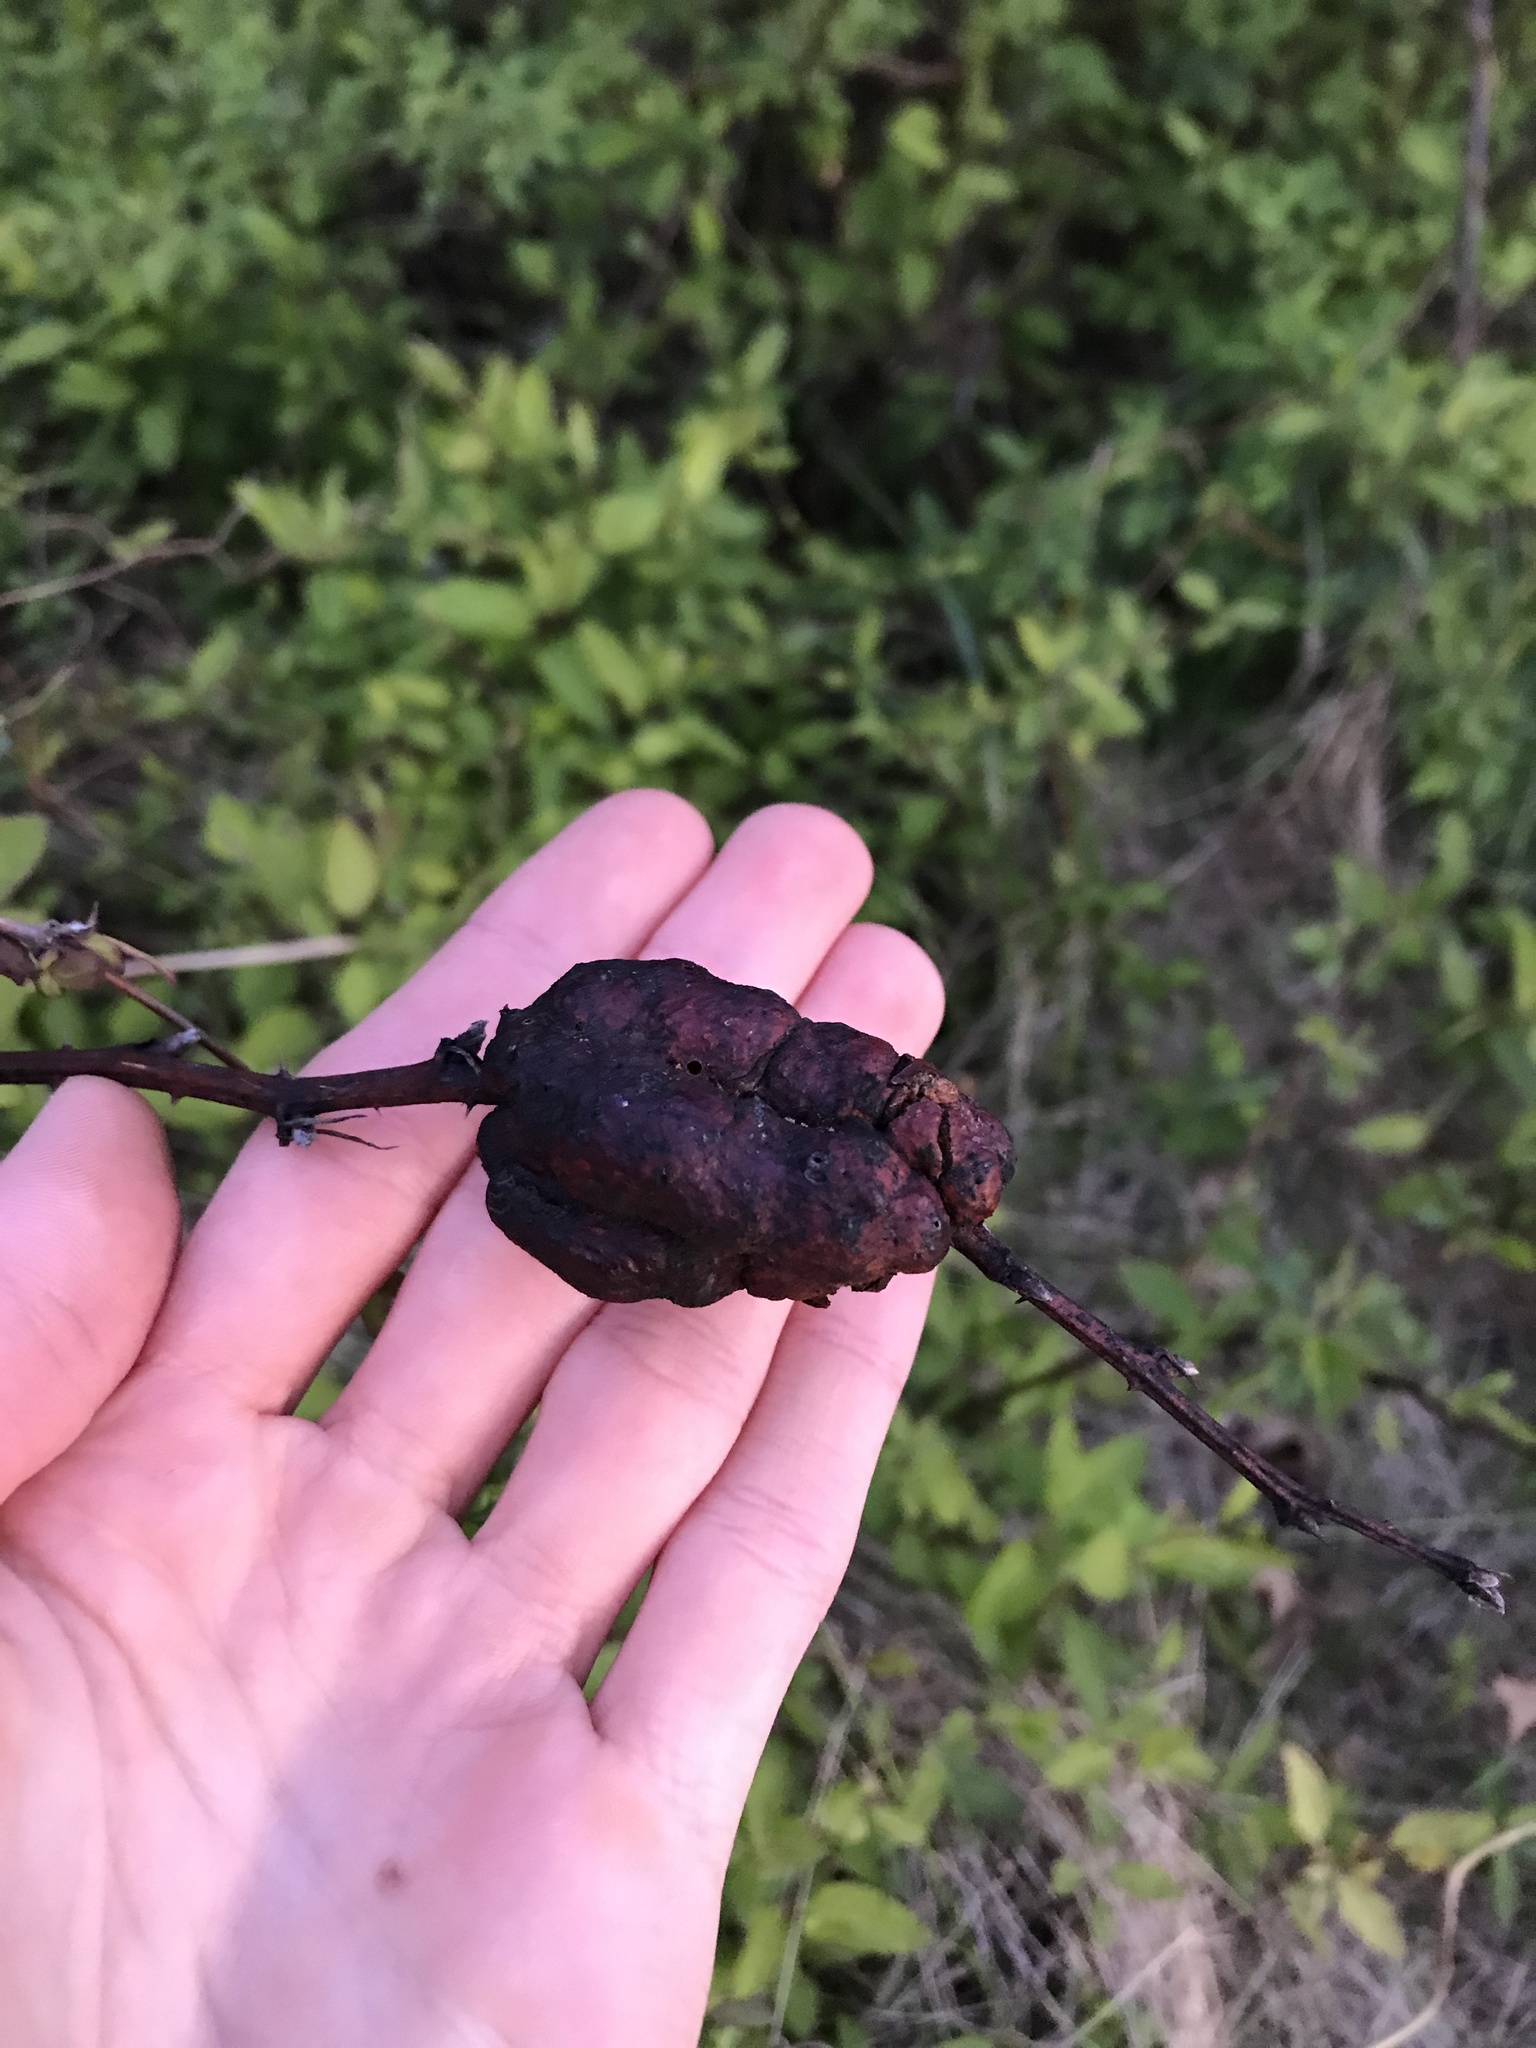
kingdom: Animalia
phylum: Arthropoda
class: Insecta
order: Hymenoptera
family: Cynipidae
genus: Diastrophus
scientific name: Diastrophus
